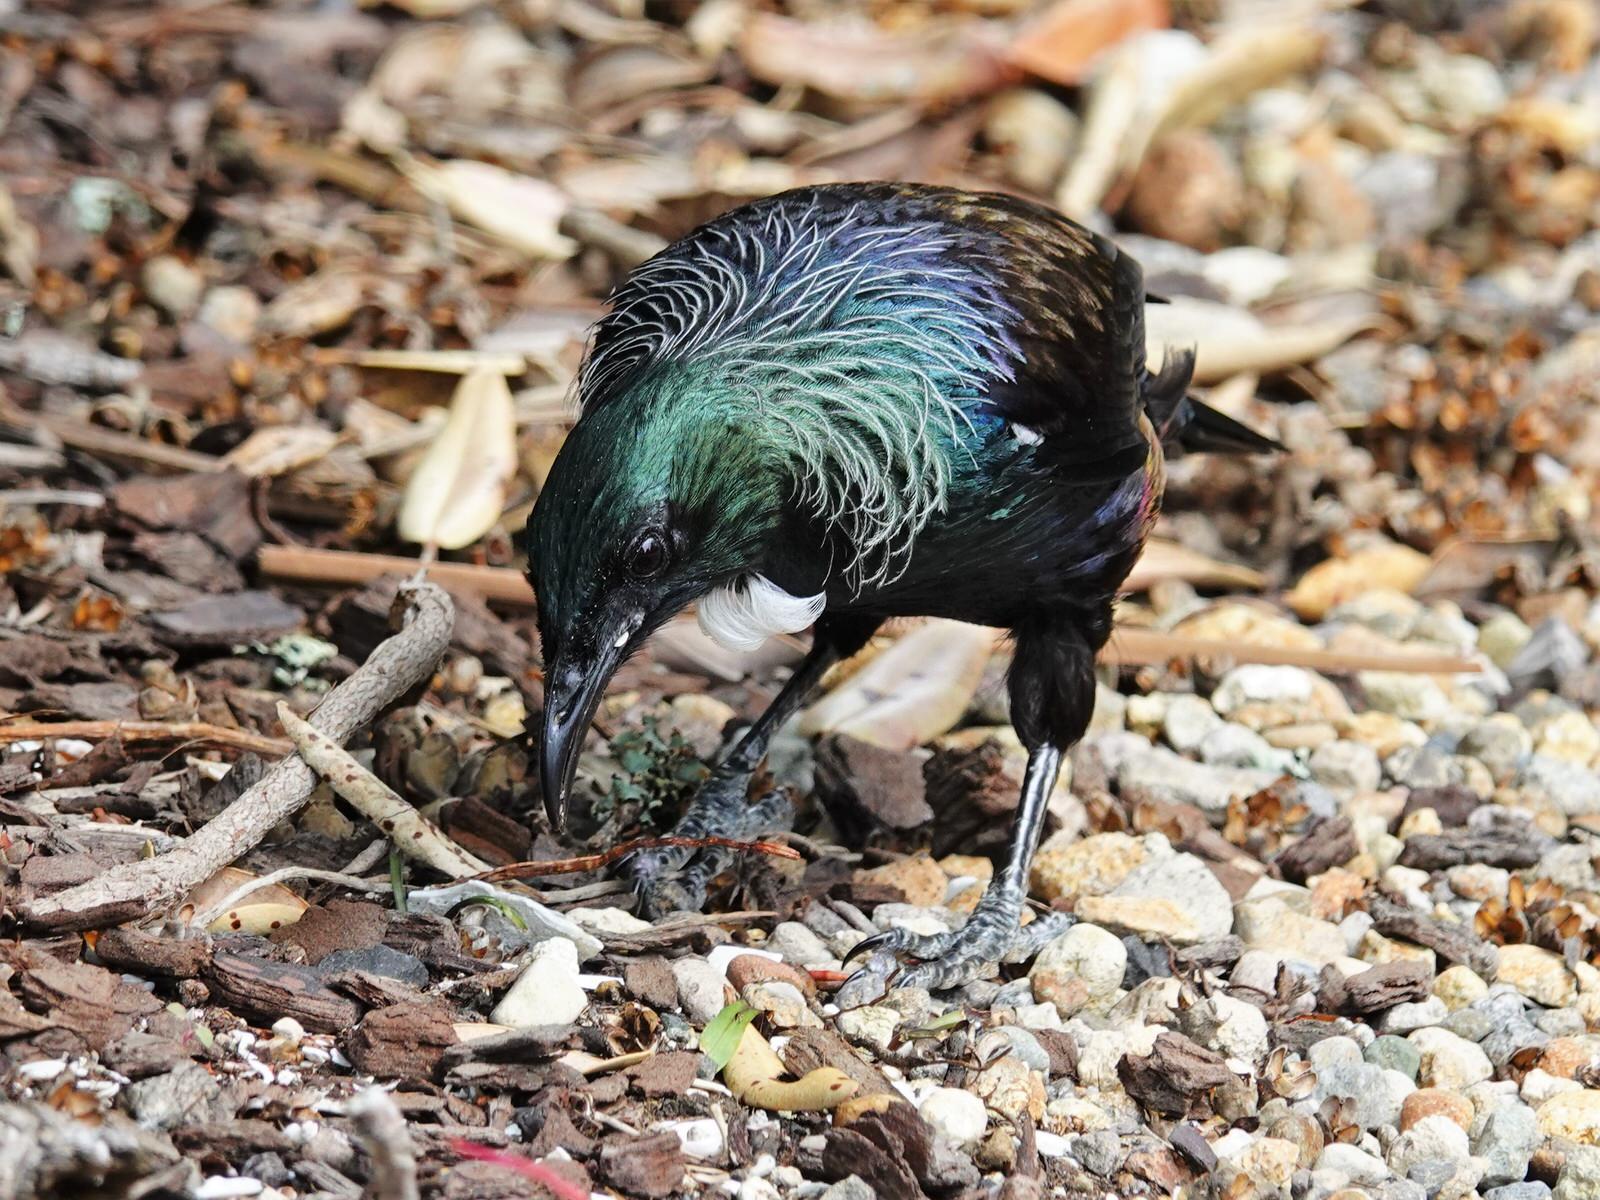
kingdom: Animalia
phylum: Chordata
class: Aves
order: Passeriformes
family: Meliphagidae
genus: Prosthemadera
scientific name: Prosthemadera novaeseelandiae
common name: Tui
